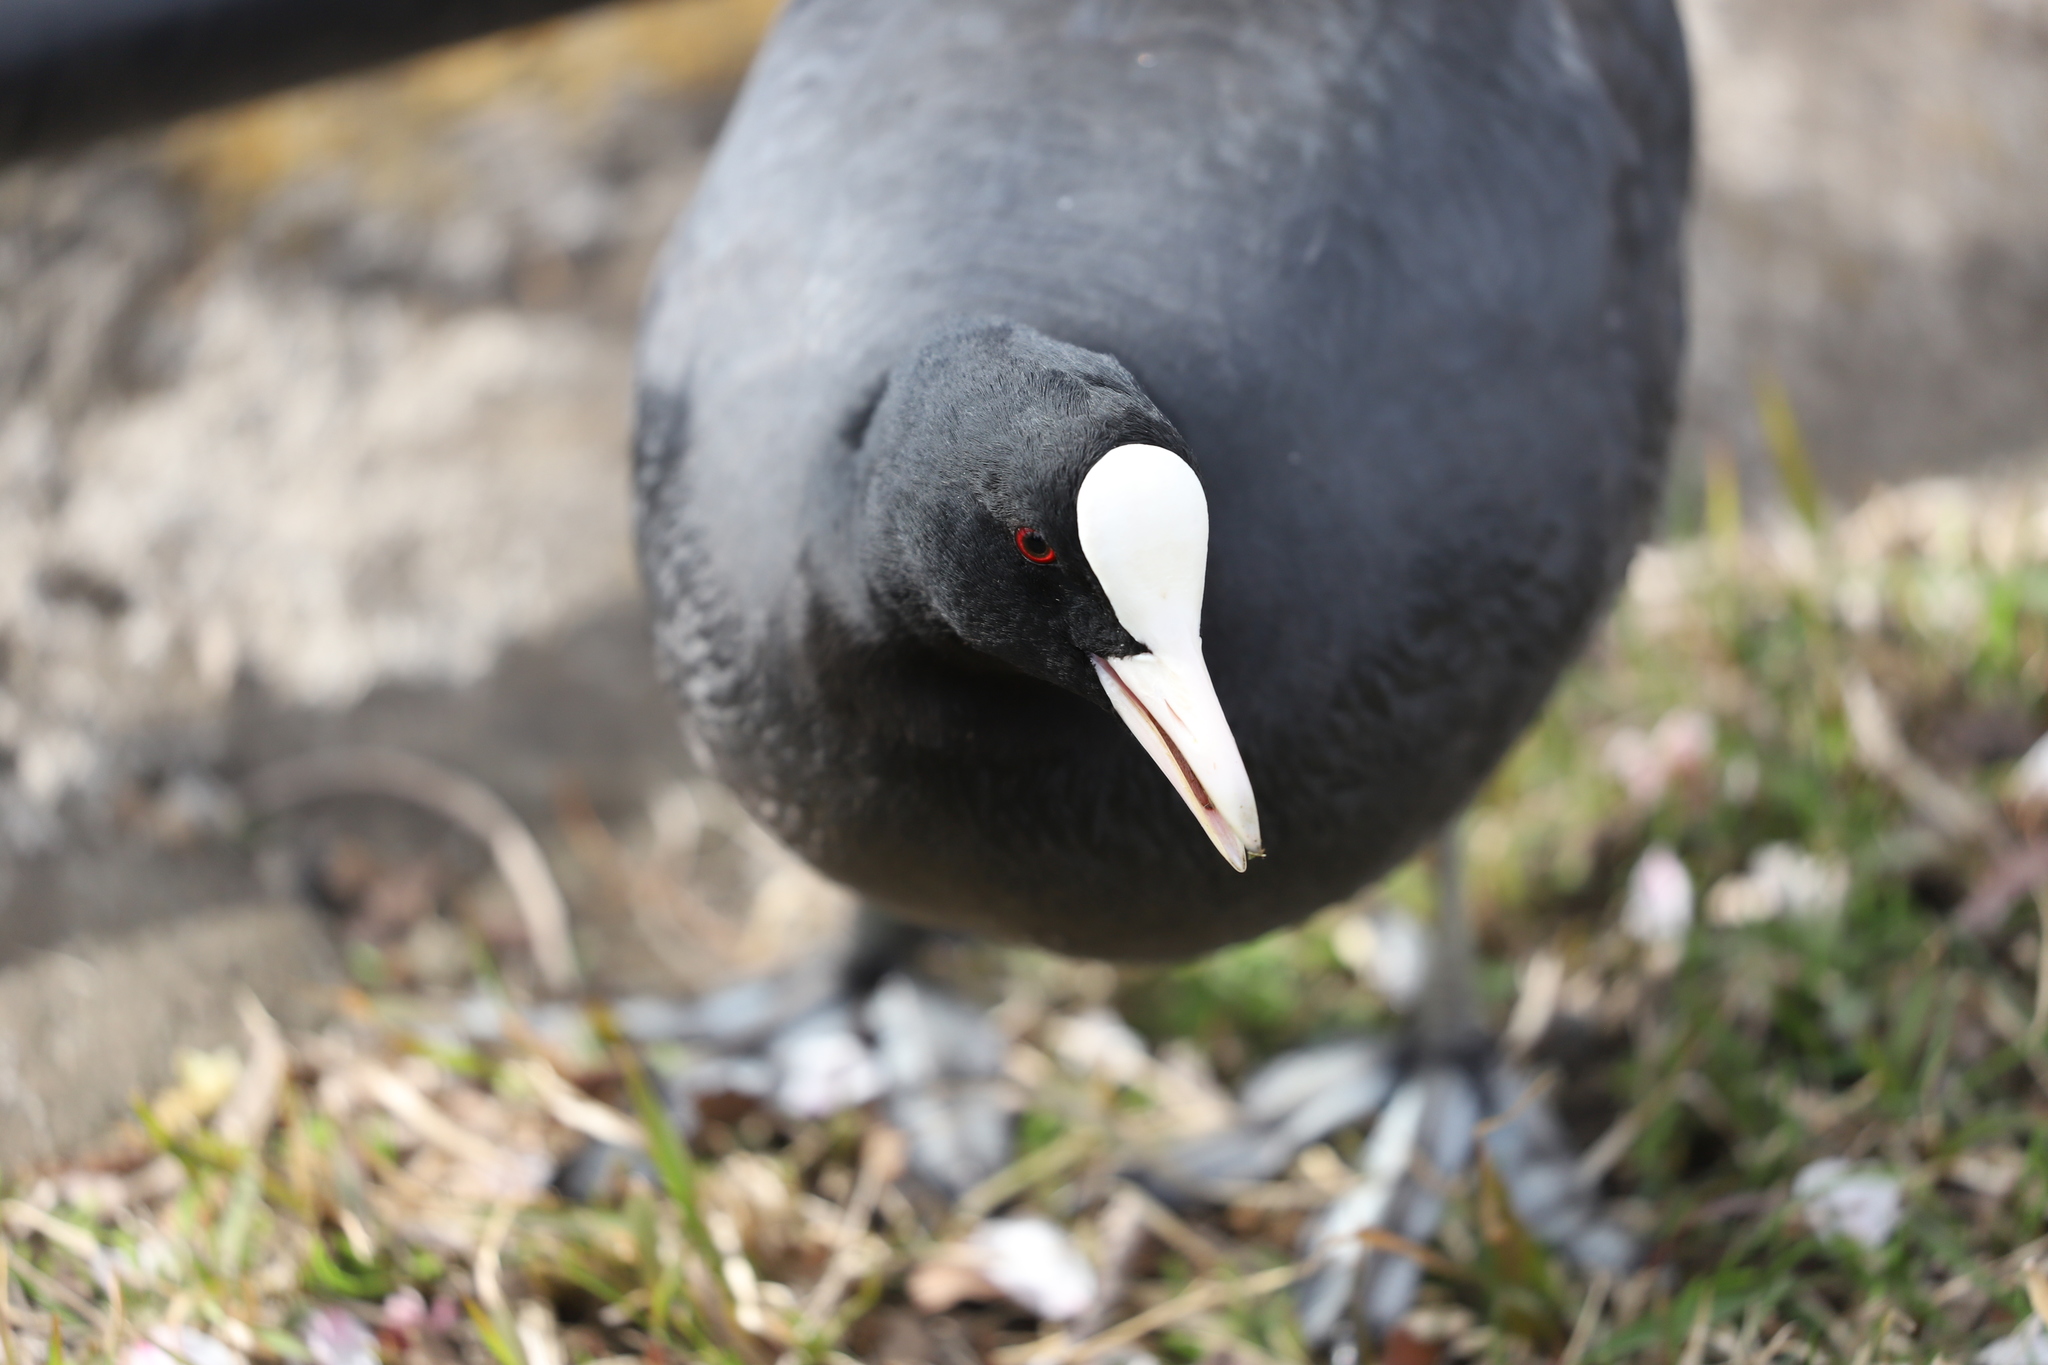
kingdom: Animalia
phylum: Chordata
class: Aves
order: Gruiformes
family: Rallidae
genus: Fulica
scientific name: Fulica atra
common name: Eurasian coot
